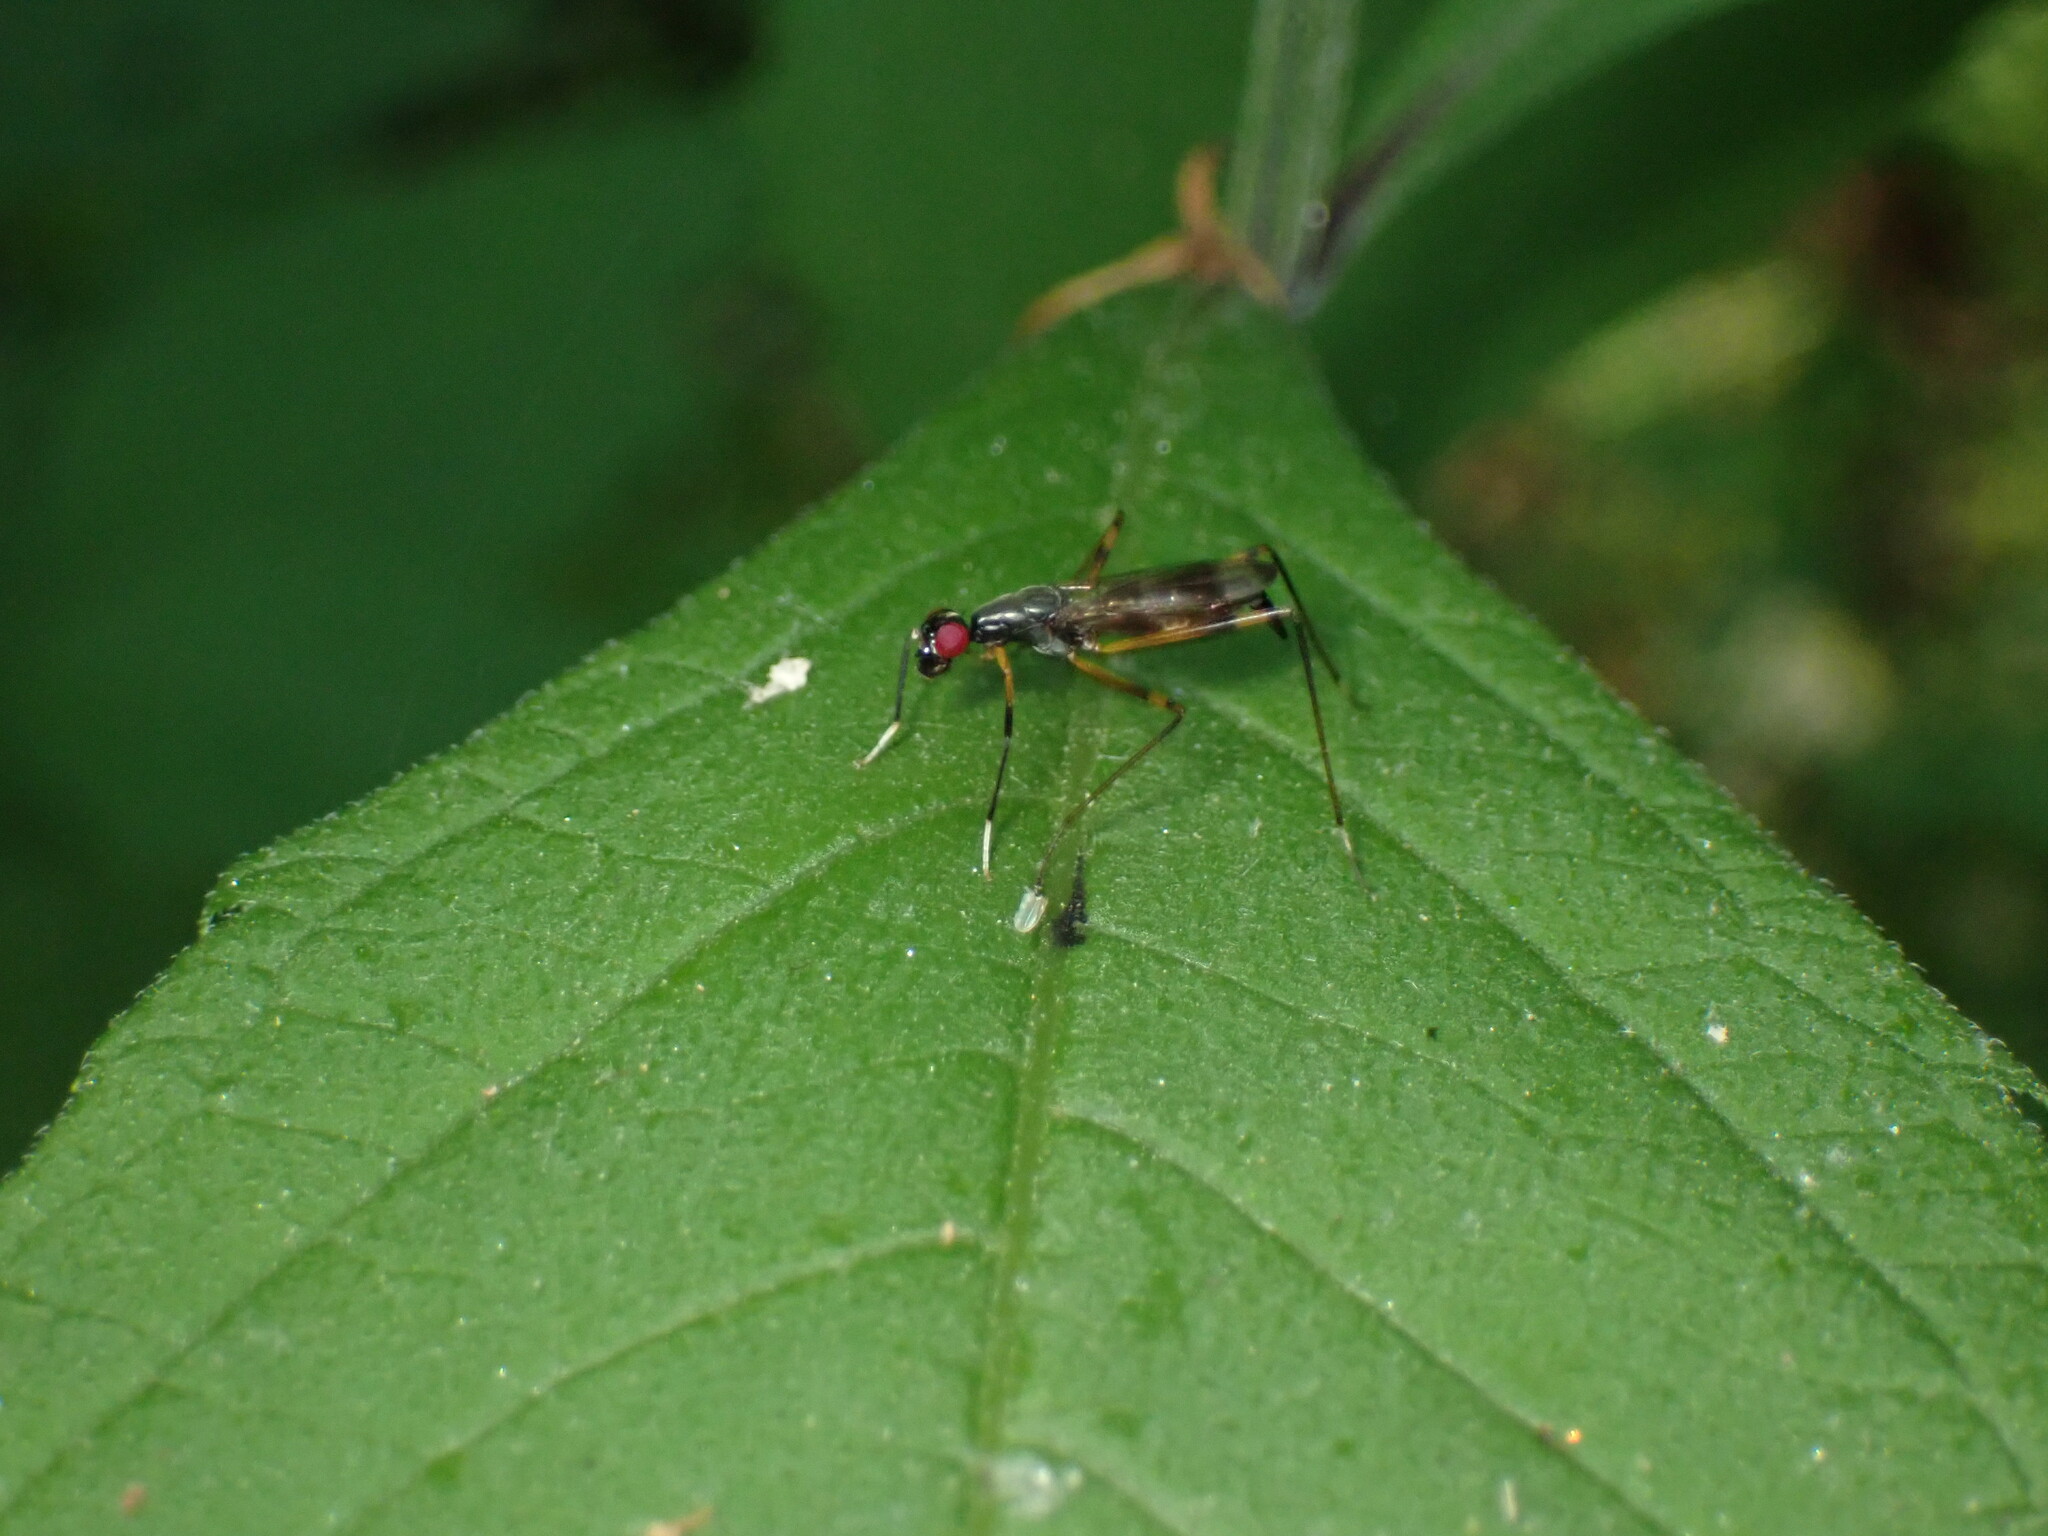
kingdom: Animalia
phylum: Arthropoda
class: Insecta
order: Diptera
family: Micropezidae
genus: Rainieria
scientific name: Rainieria antennaepes
